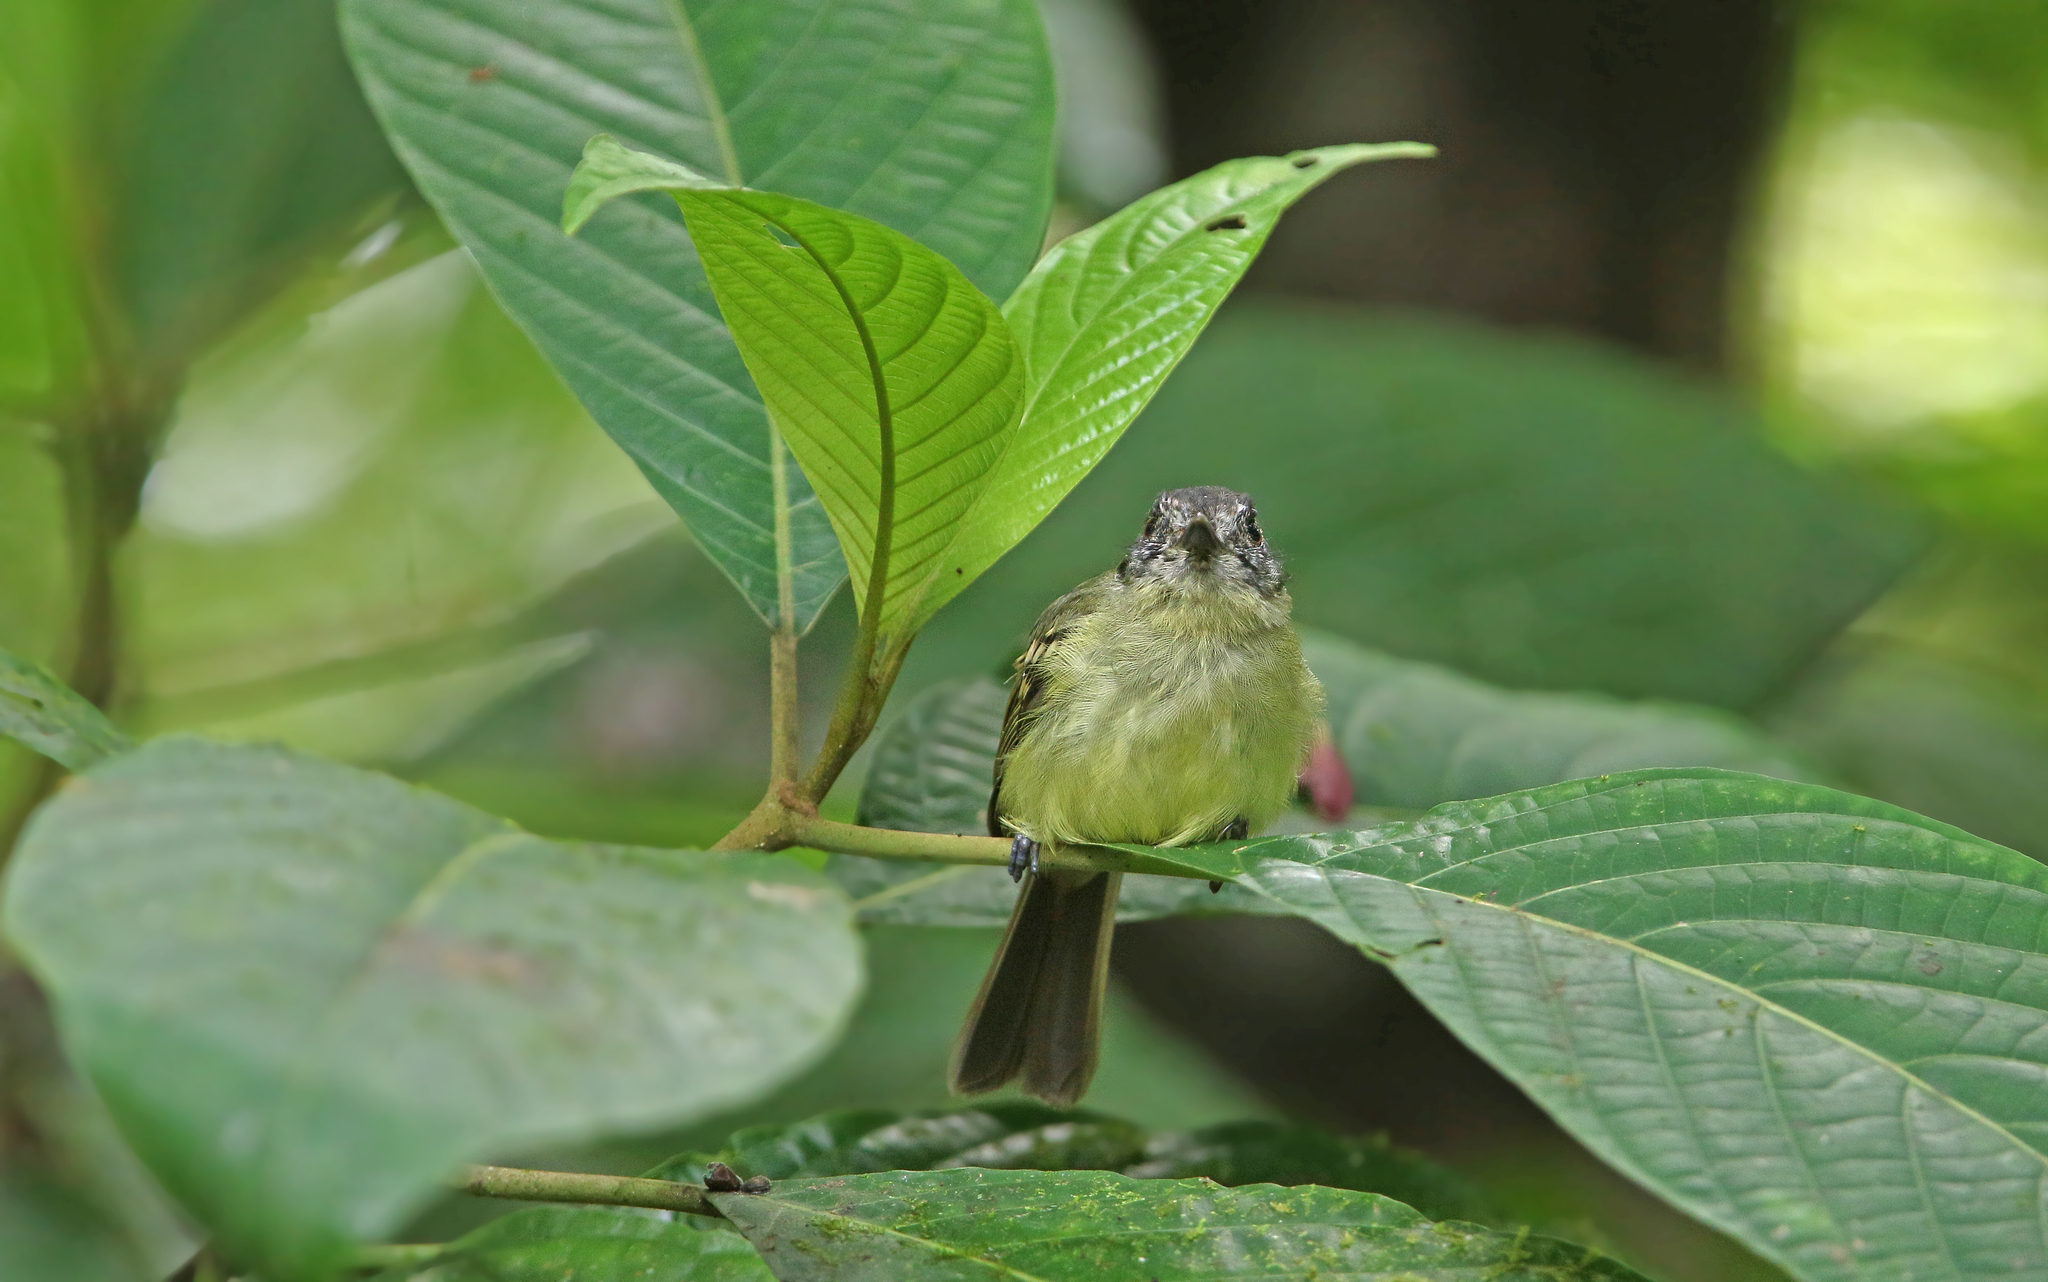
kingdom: Animalia
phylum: Chordata
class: Aves
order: Passeriformes
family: Tyrannidae
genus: Leptopogon
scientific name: Leptopogon superciliaris
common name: Slaty-capped flycatcher
